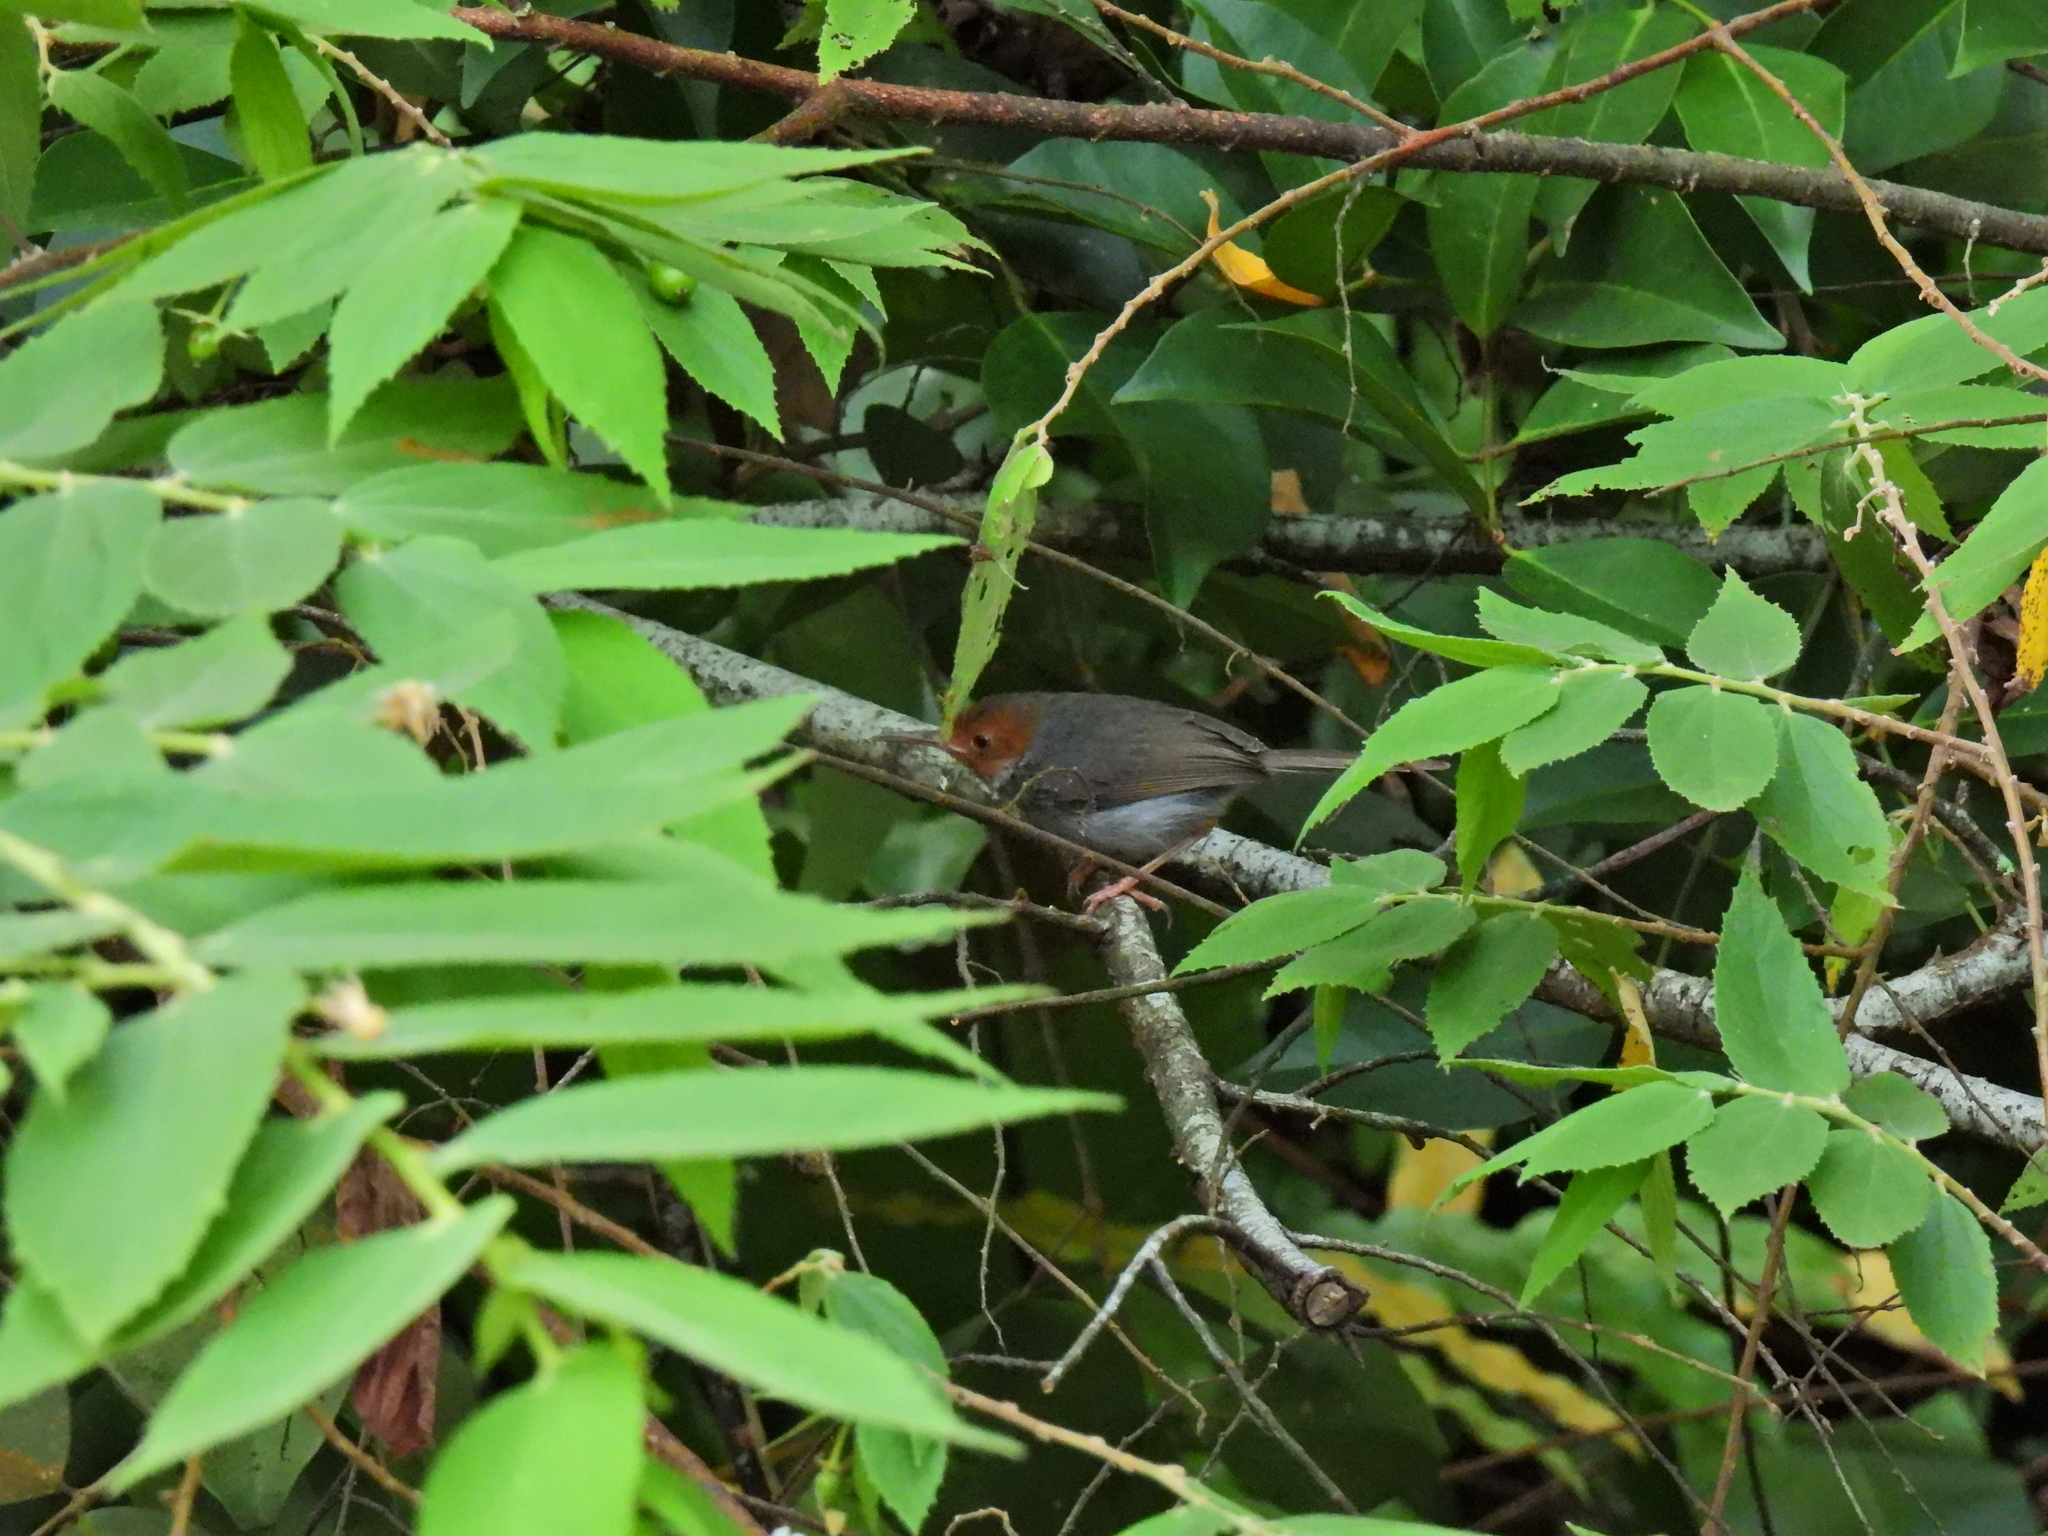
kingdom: Animalia
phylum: Chordata
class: Aves
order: Passeriformes
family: Cisticolidae
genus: Orthotomus
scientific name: Orthotomus ruficeps
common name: Ashy tailorbird
